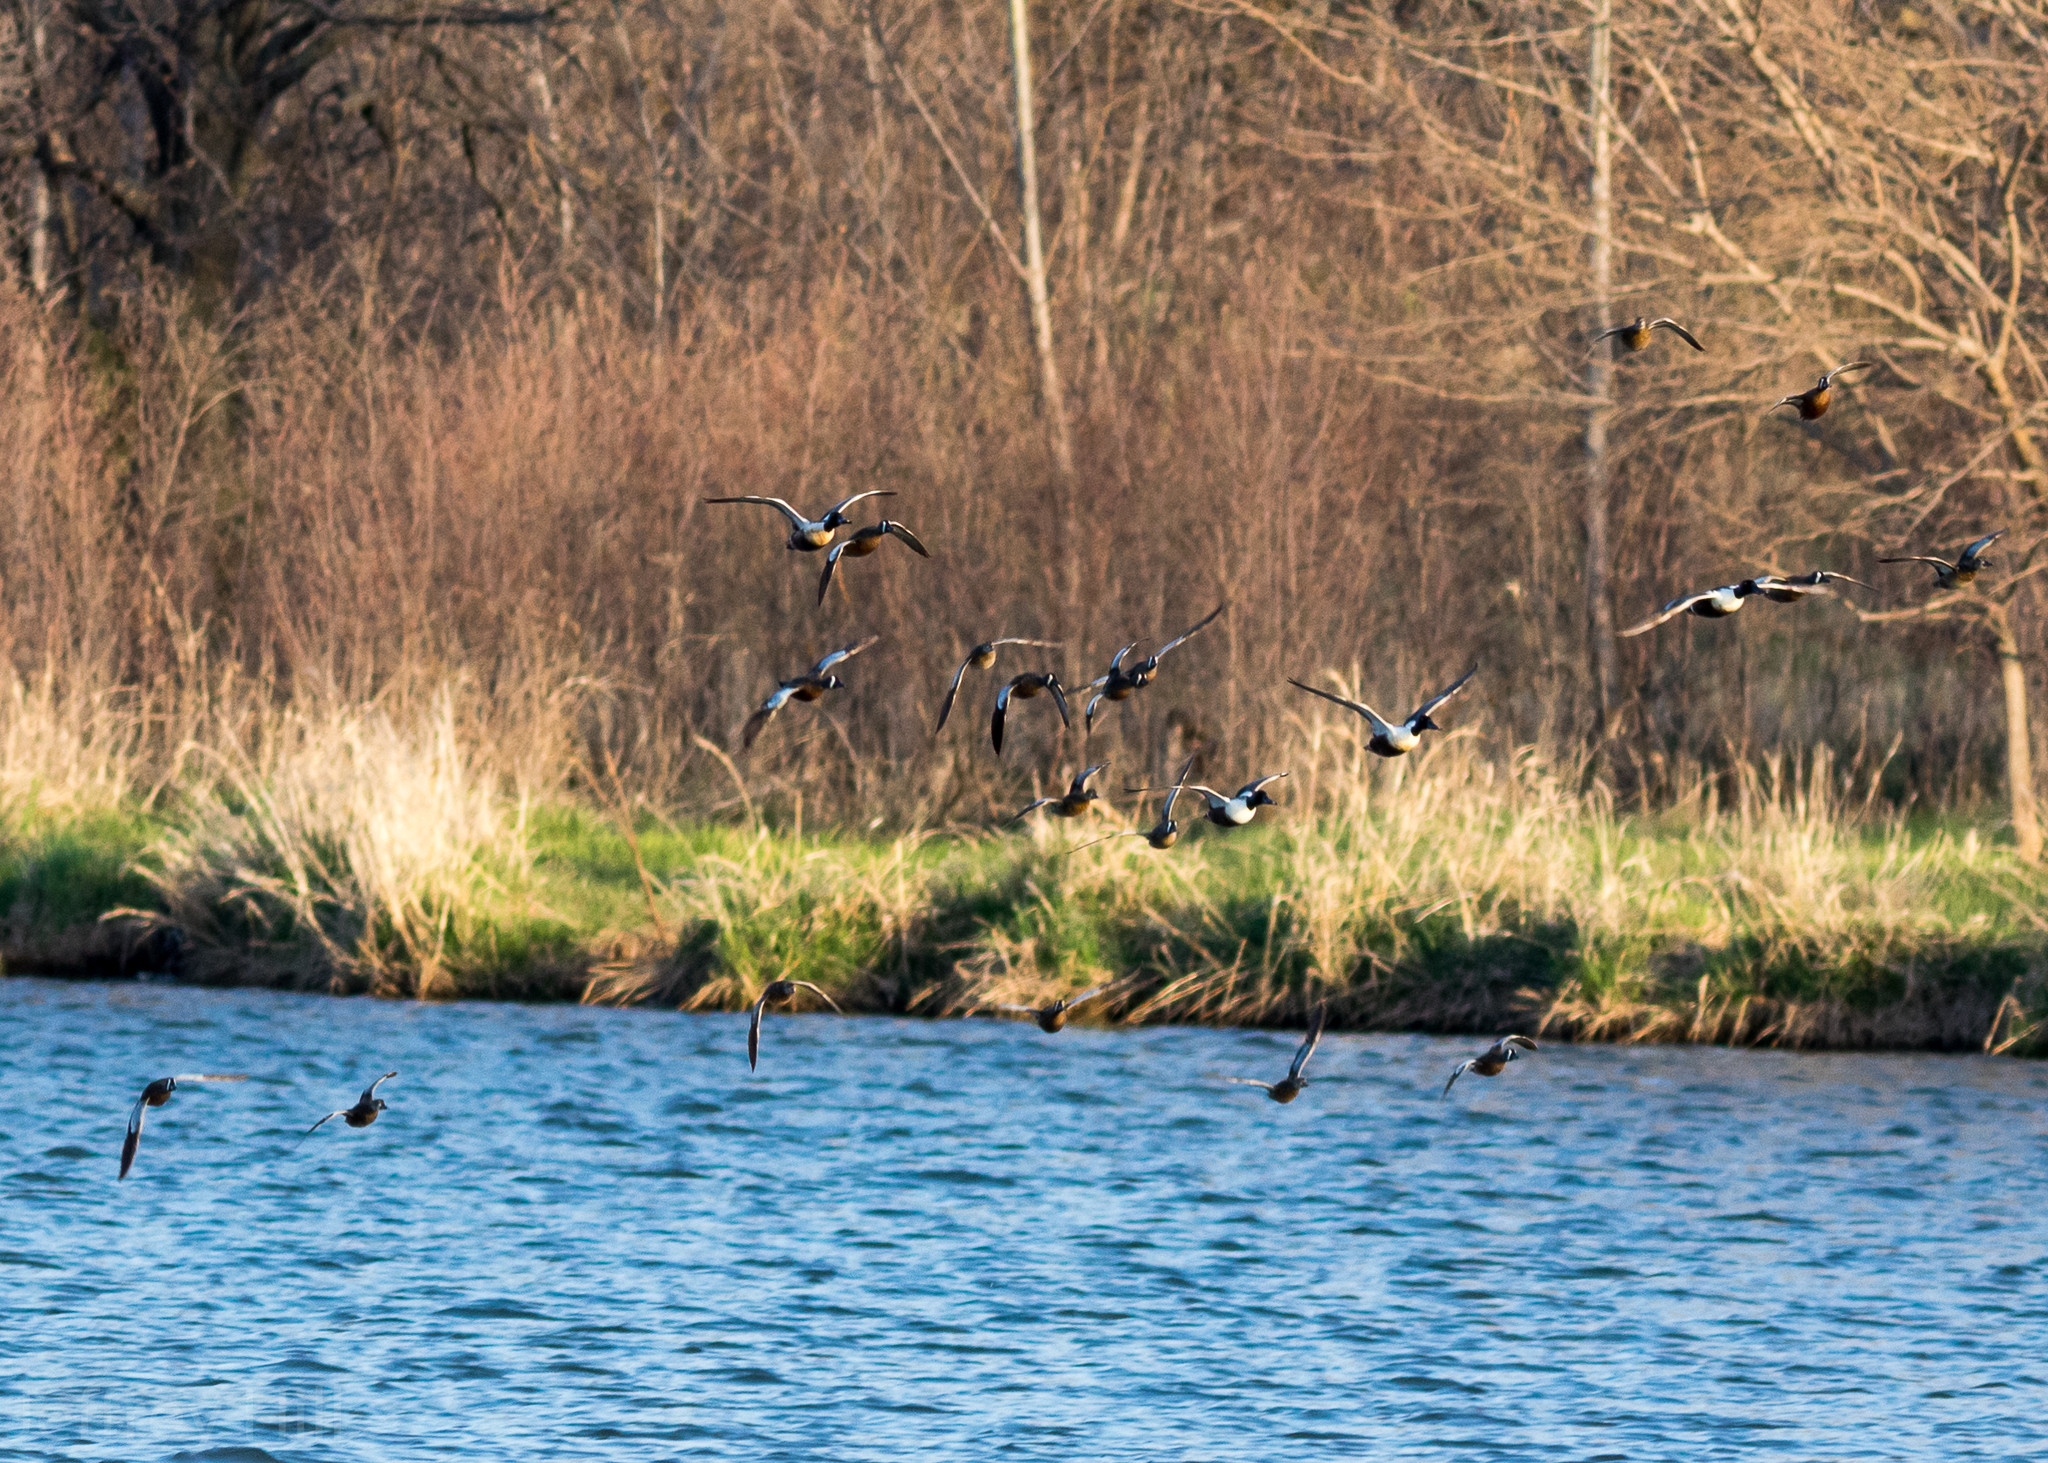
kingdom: Animalia
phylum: Chordata
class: Aves
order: Anseriformes
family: Anatidae
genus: Spatula
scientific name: Spatula discors
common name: Blue-winged teal
